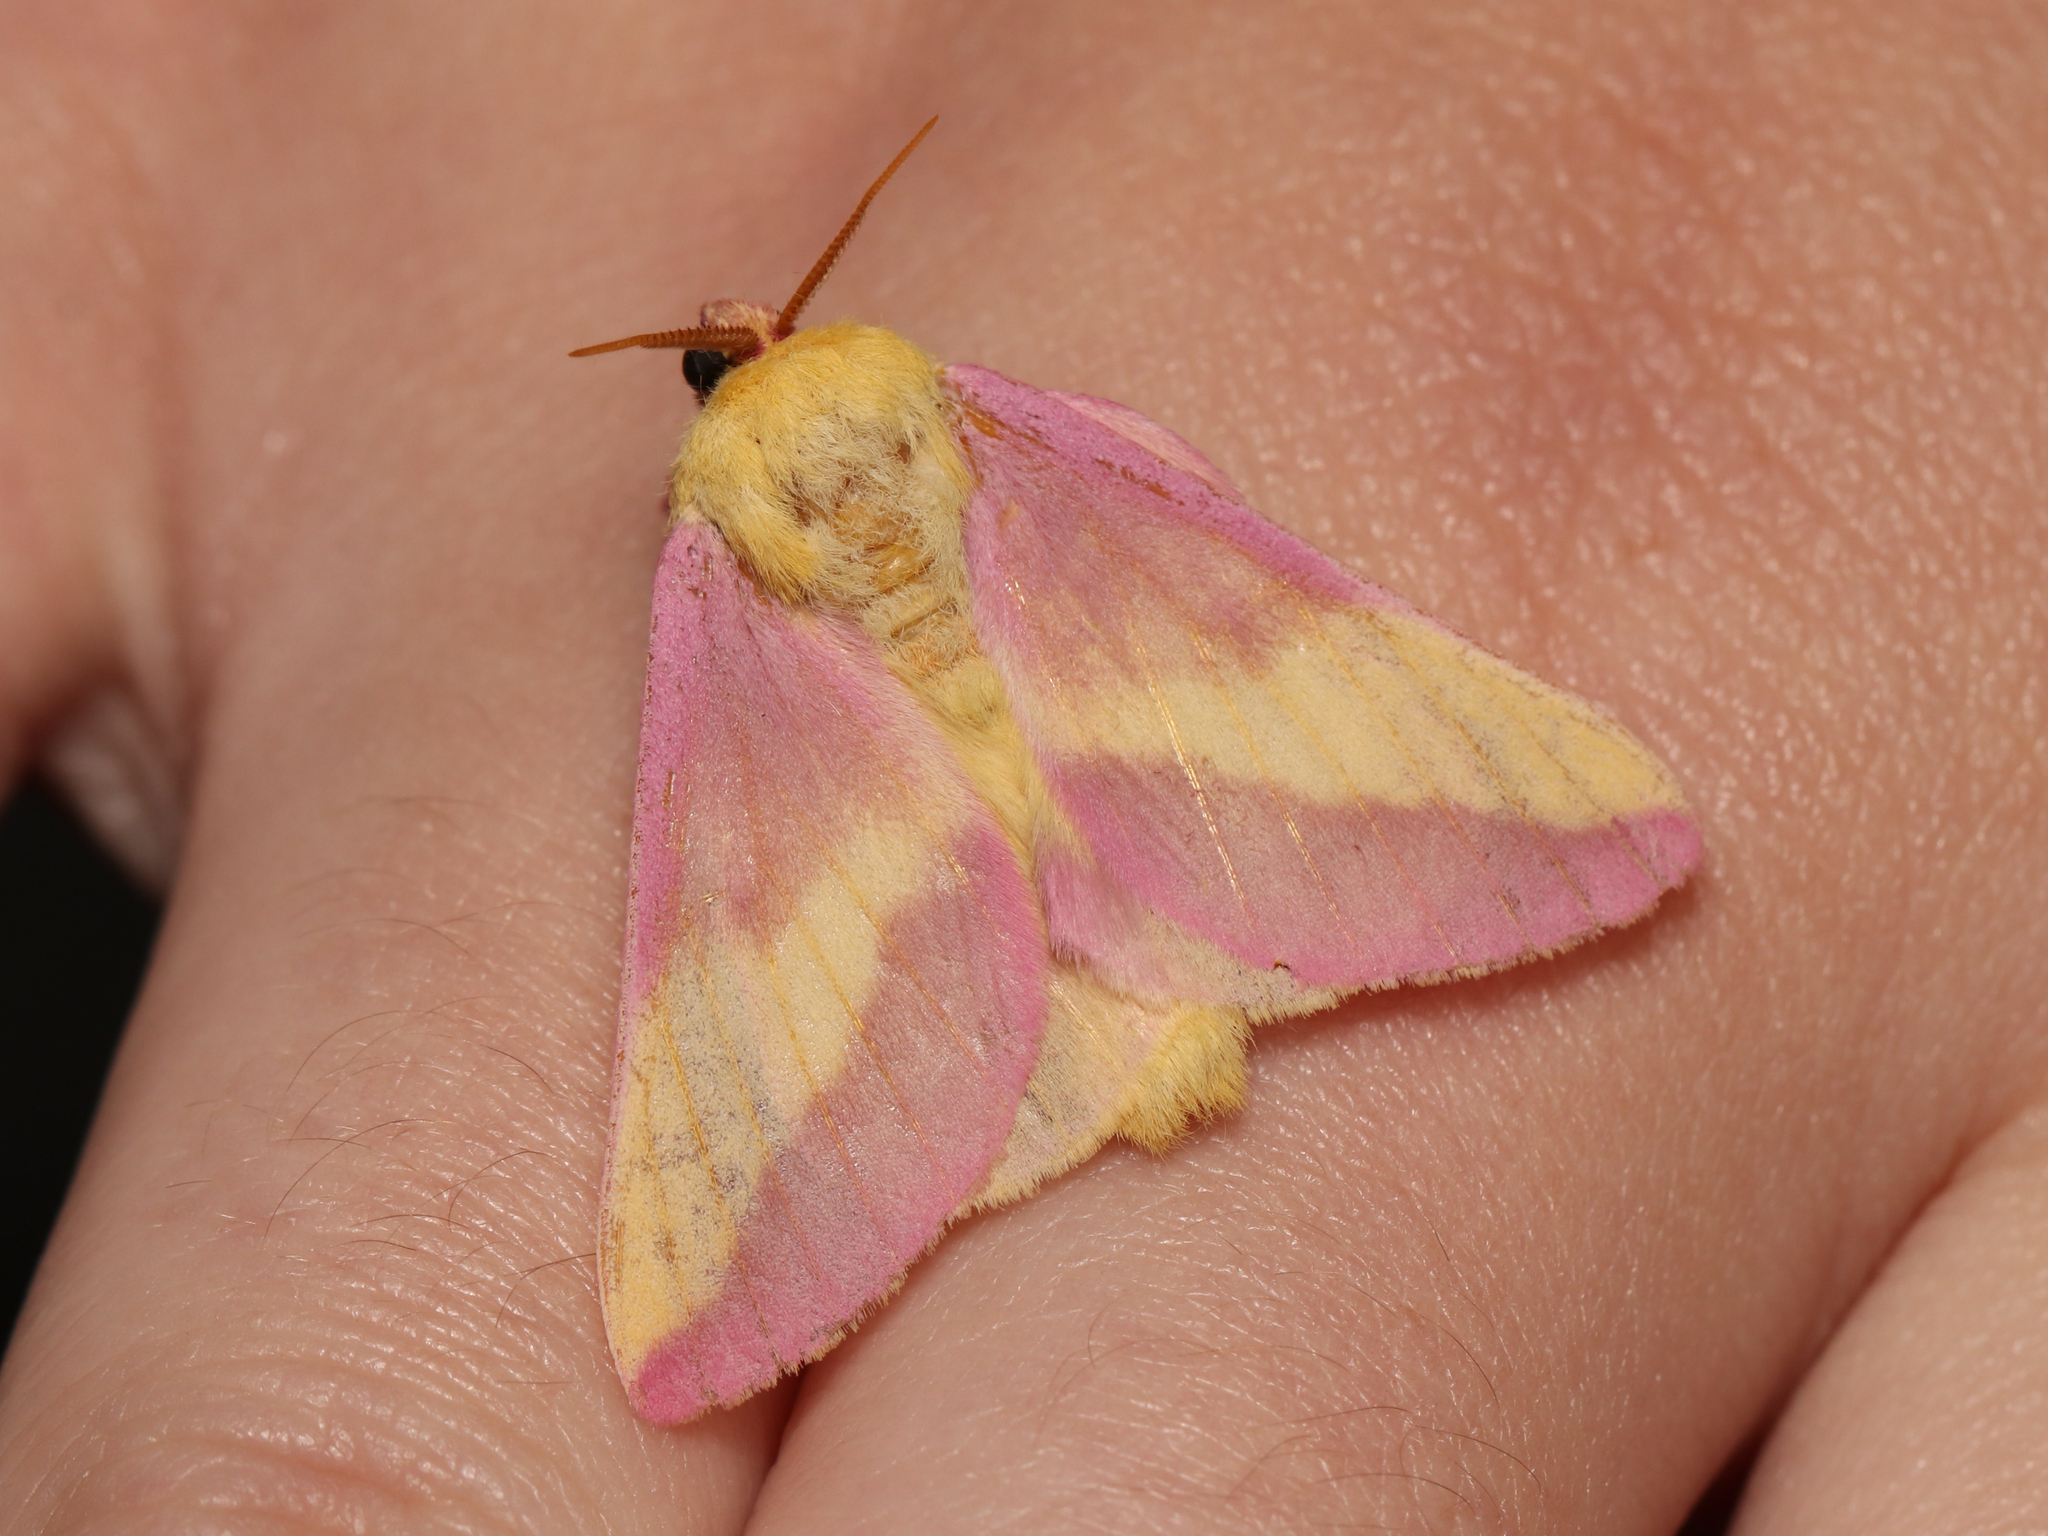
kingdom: Animalia
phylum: Arthropoda
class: Insecta
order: Lepidoptera
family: Saturniidae
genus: Dryocampa
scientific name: Dryocampa rubicunda
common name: Rosy maple moth
